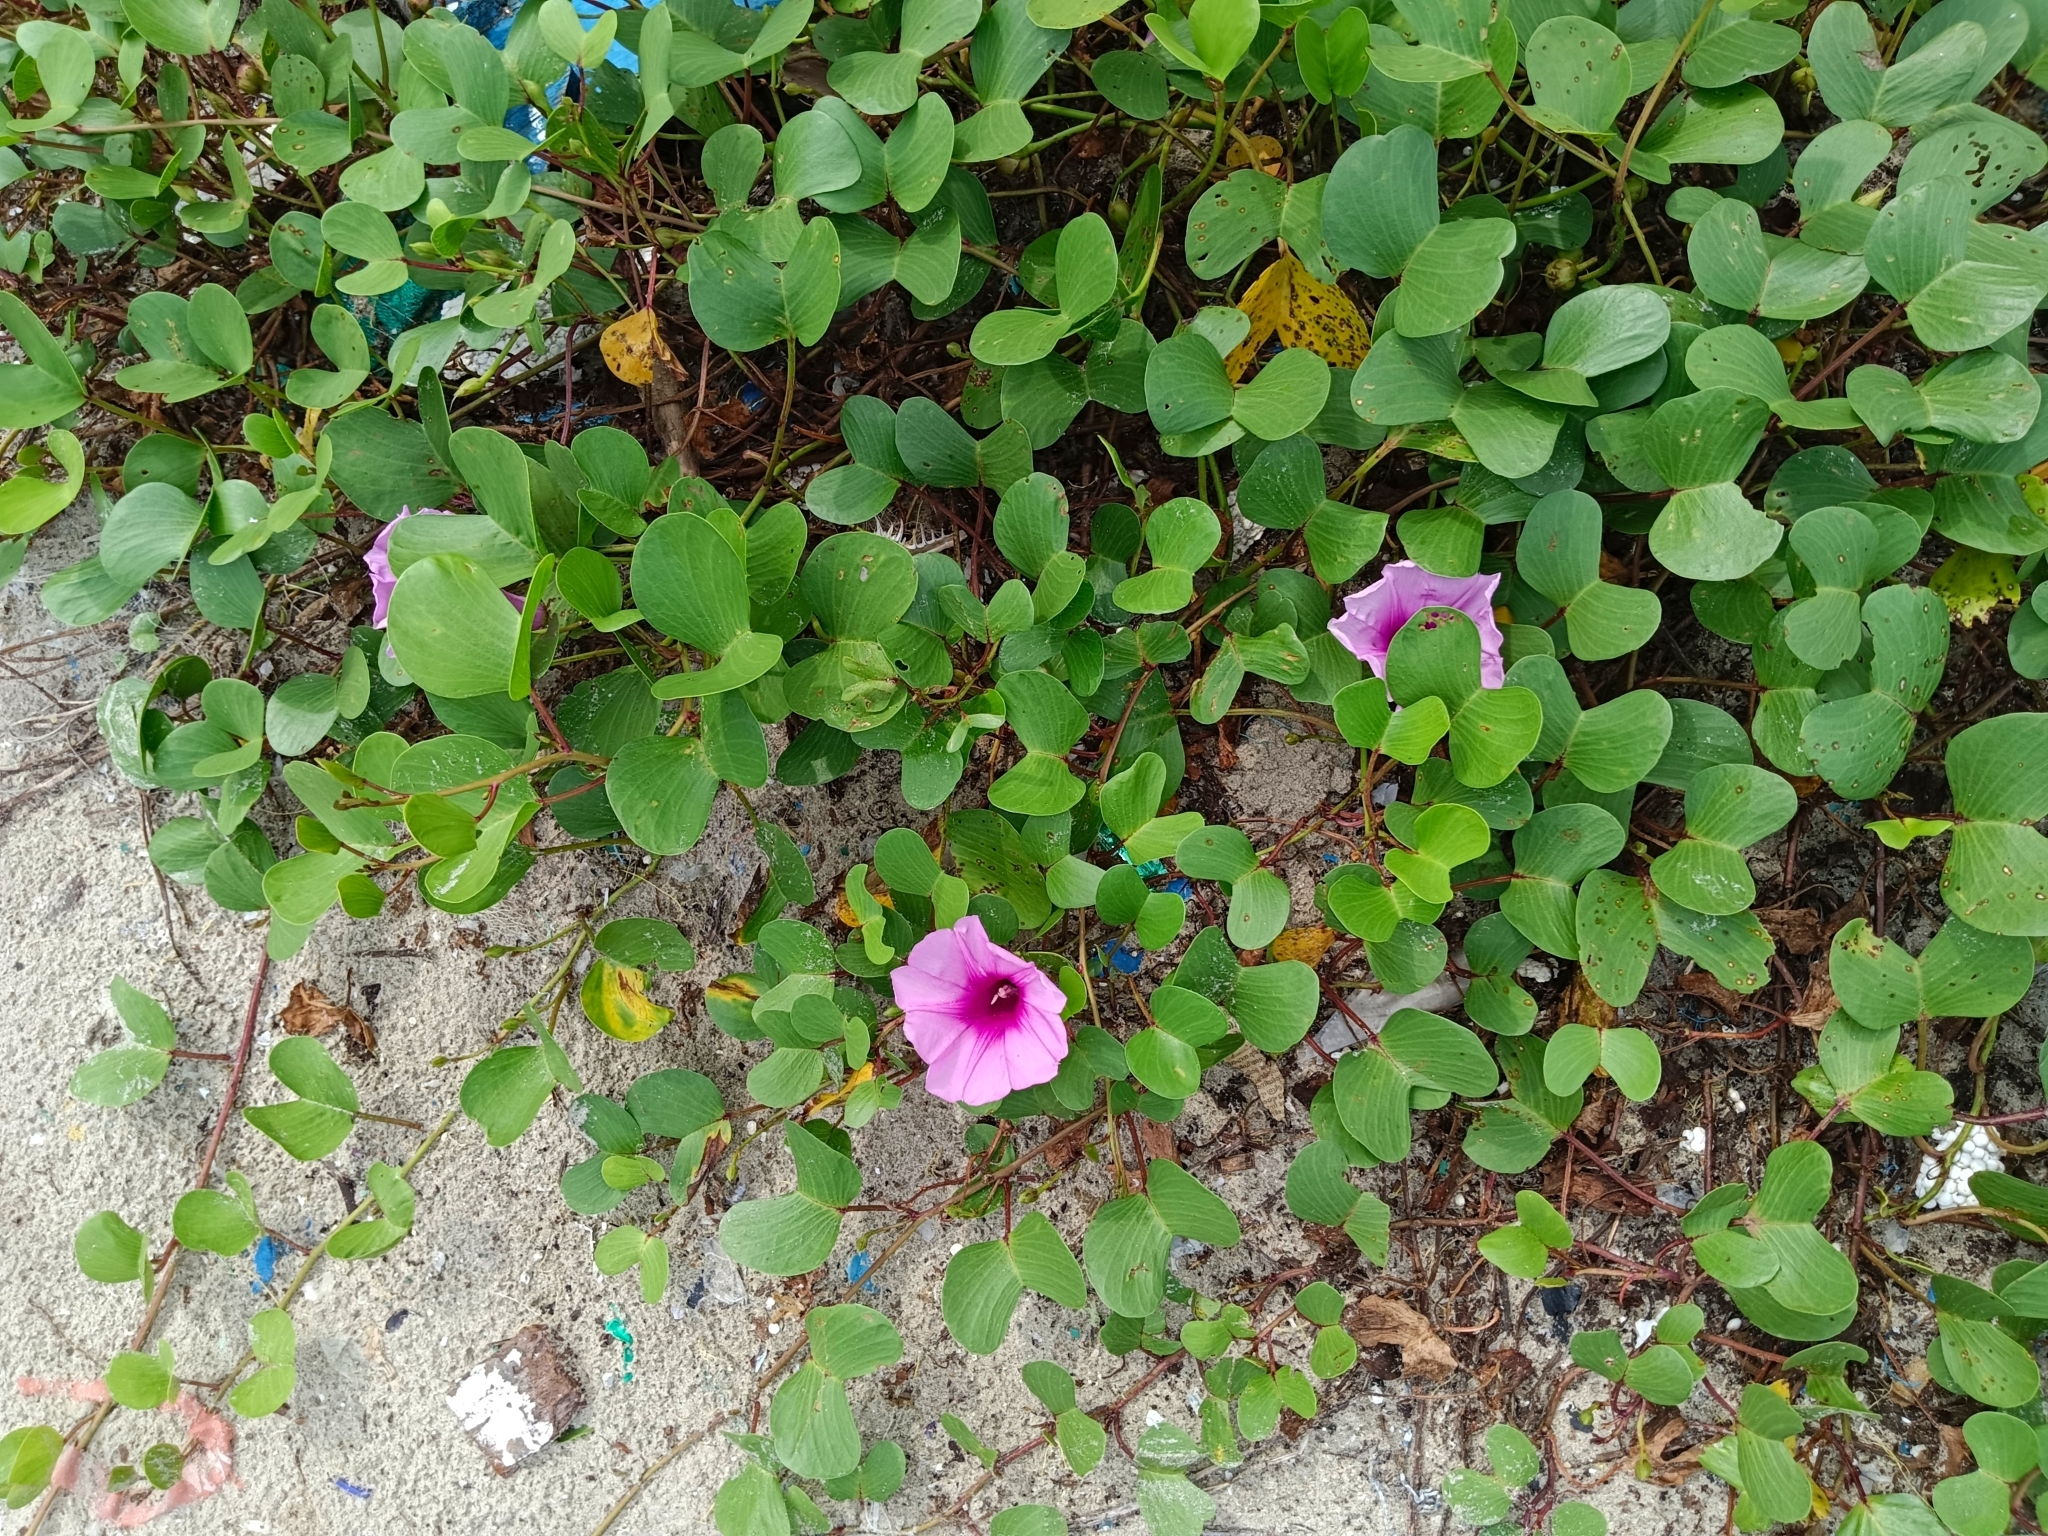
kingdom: Plantae
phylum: Tracheophyta
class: Magnoliopsida
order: Solanales
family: Convolvulaceae
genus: Ipomoea
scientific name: Ipomoea pes-caprae
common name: Beach morning glory
